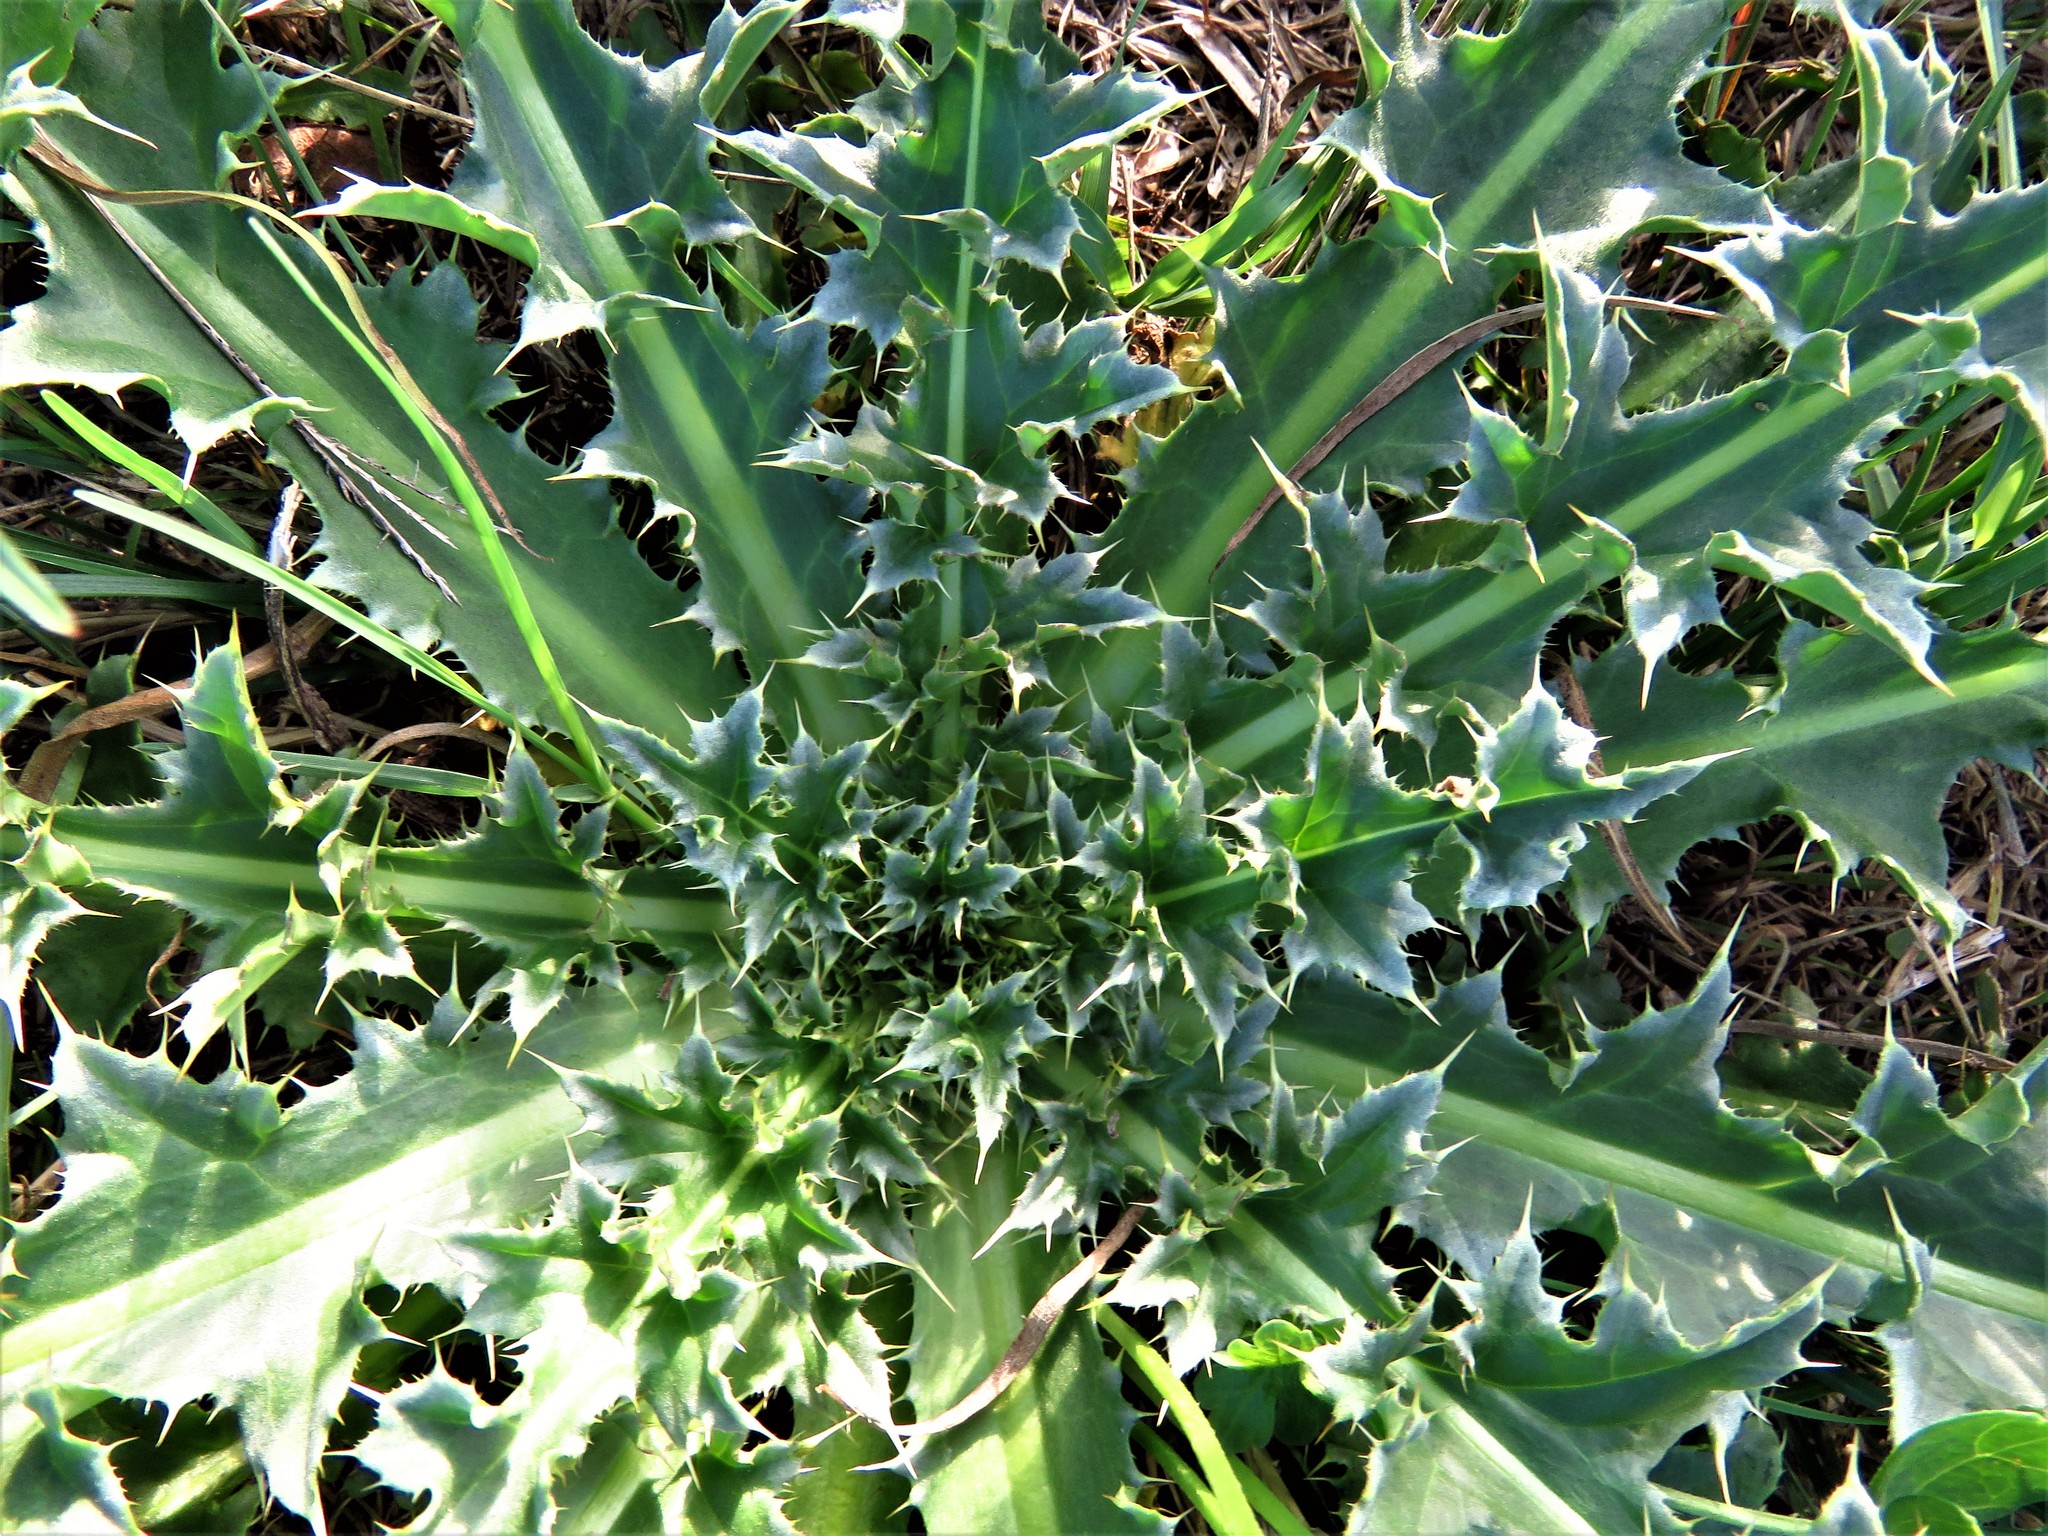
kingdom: Plantae
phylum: Tracheophyta
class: Magnoliopsida
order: Asterales
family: Asteraceae
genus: Carduus
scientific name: Carduus nutans
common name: Musk thistle
